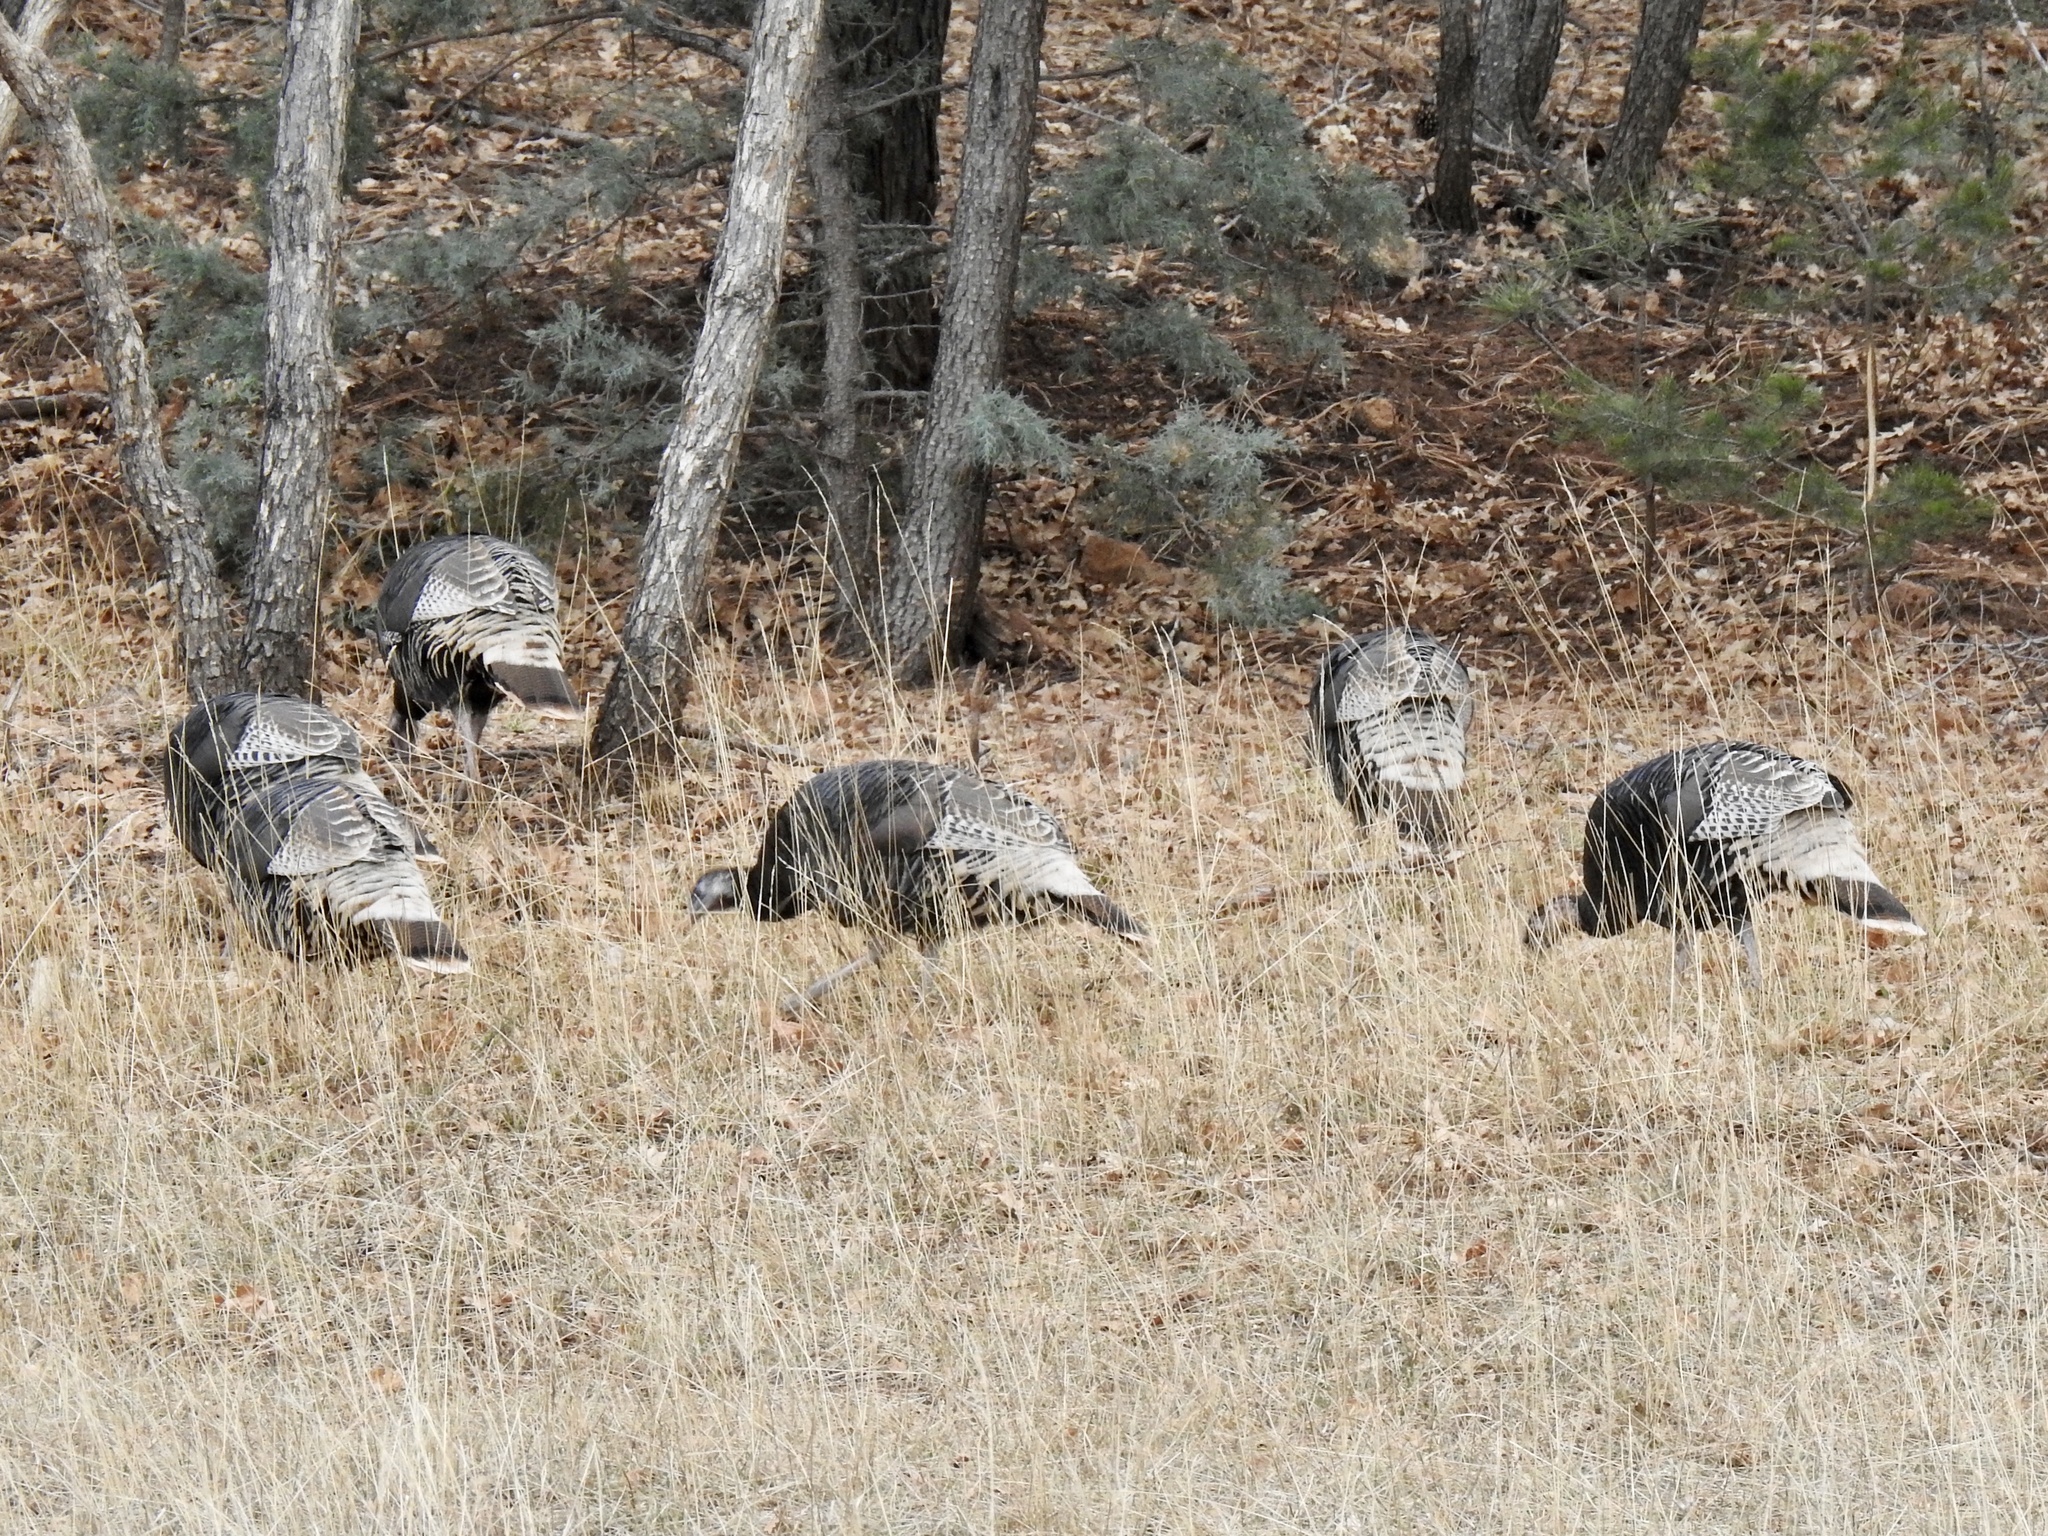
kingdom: Animalia
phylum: Chordata
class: Aves
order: Galliformes
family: Phasianidae
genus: Meleagris
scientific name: Meleagris gallopavo
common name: Wild turkey
